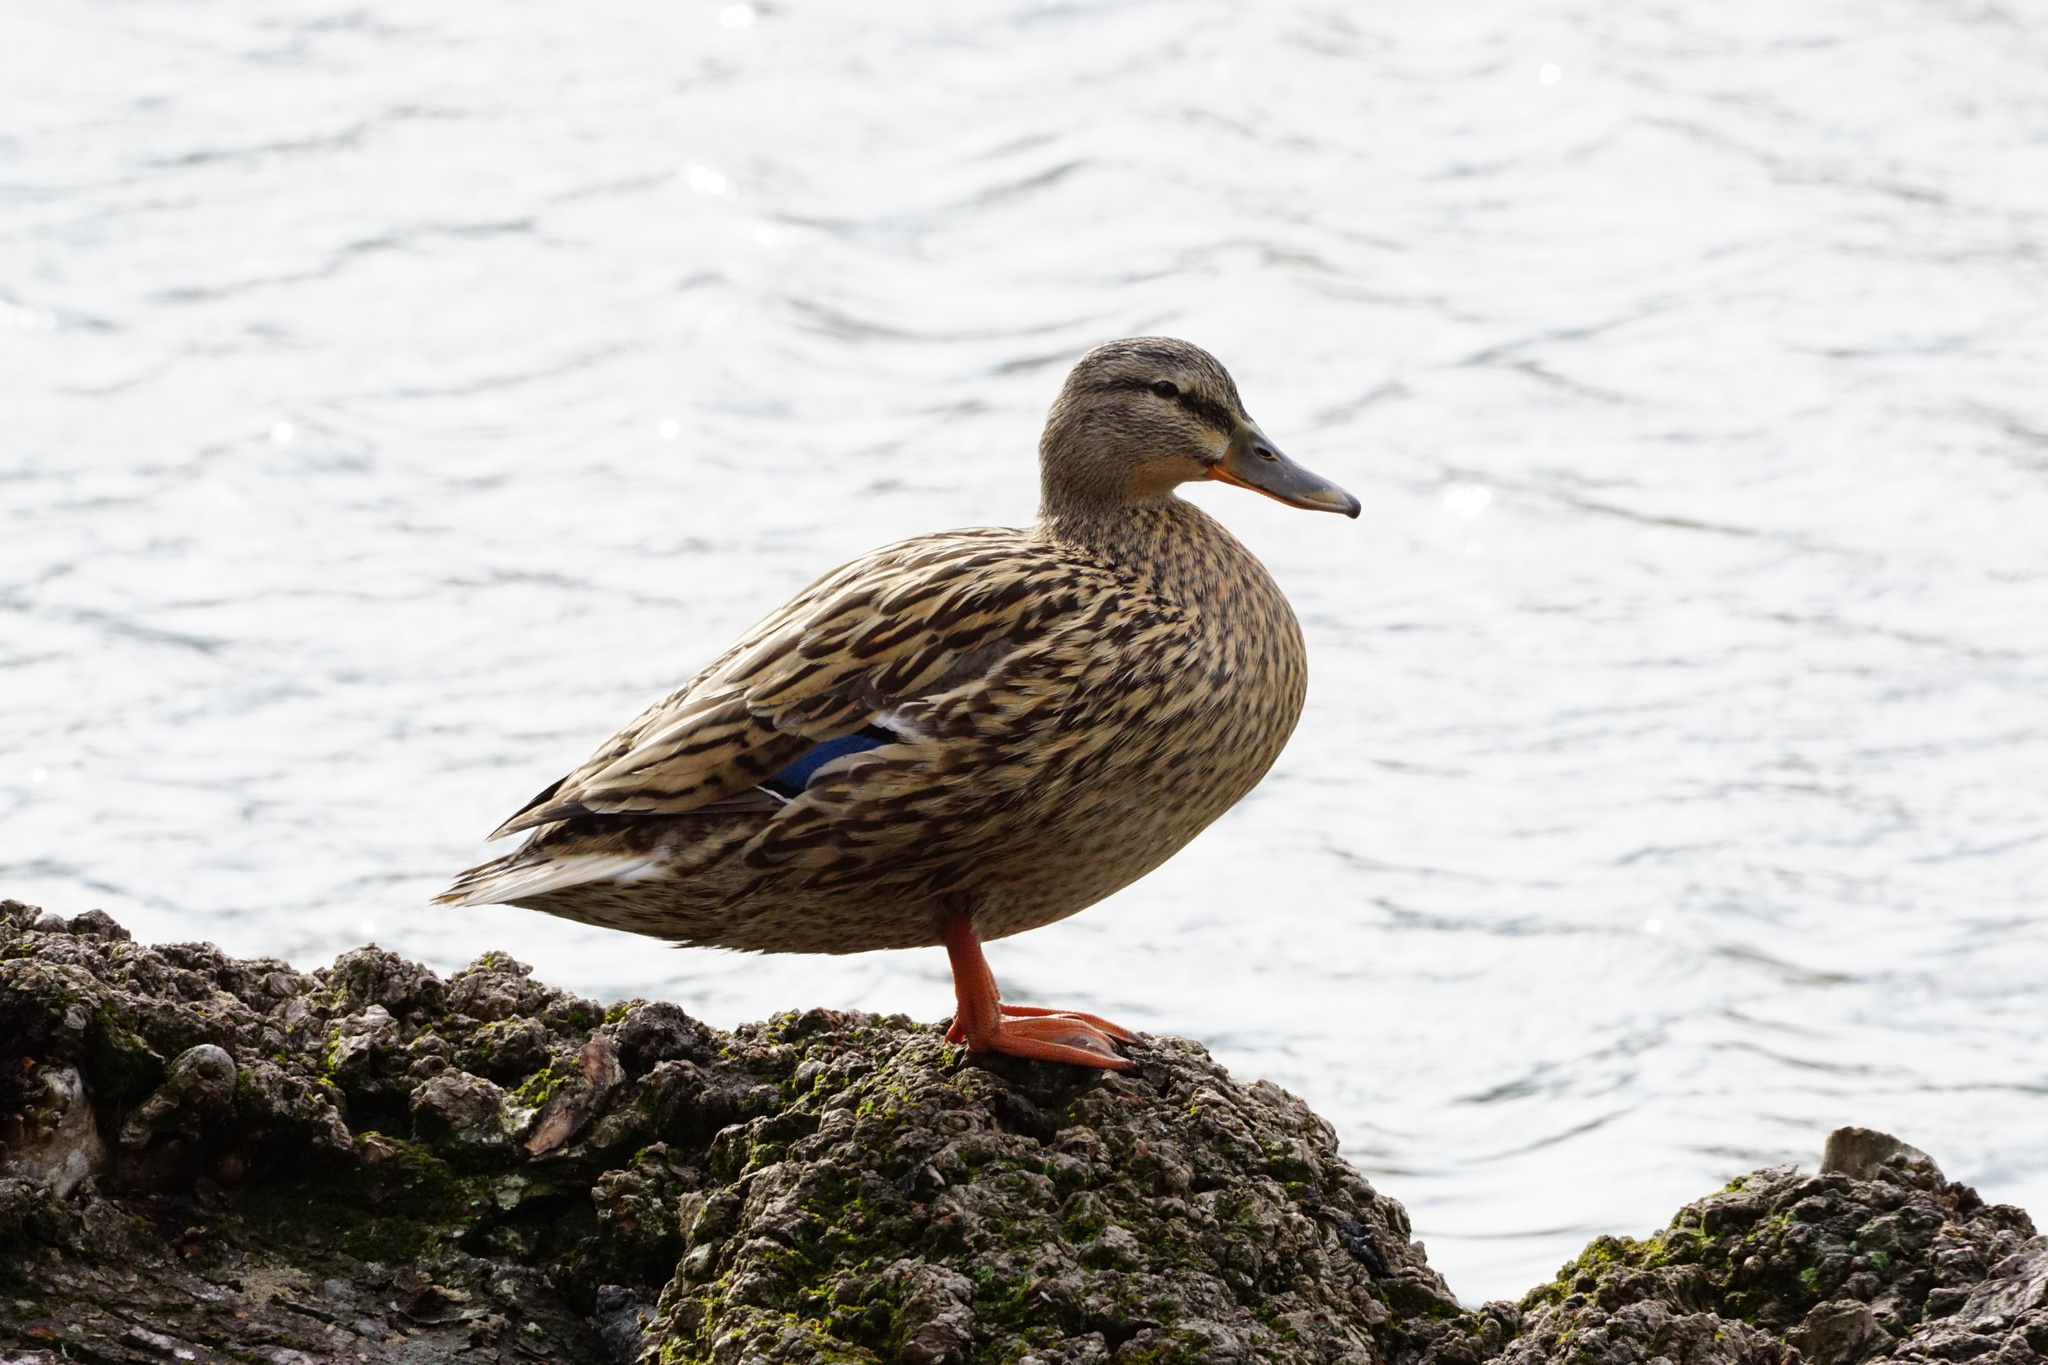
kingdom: Animalia
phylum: Chordata
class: Aves
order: Anseriformes
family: Anatidae
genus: Anas
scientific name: Anas platyrhynchos
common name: Mallard
